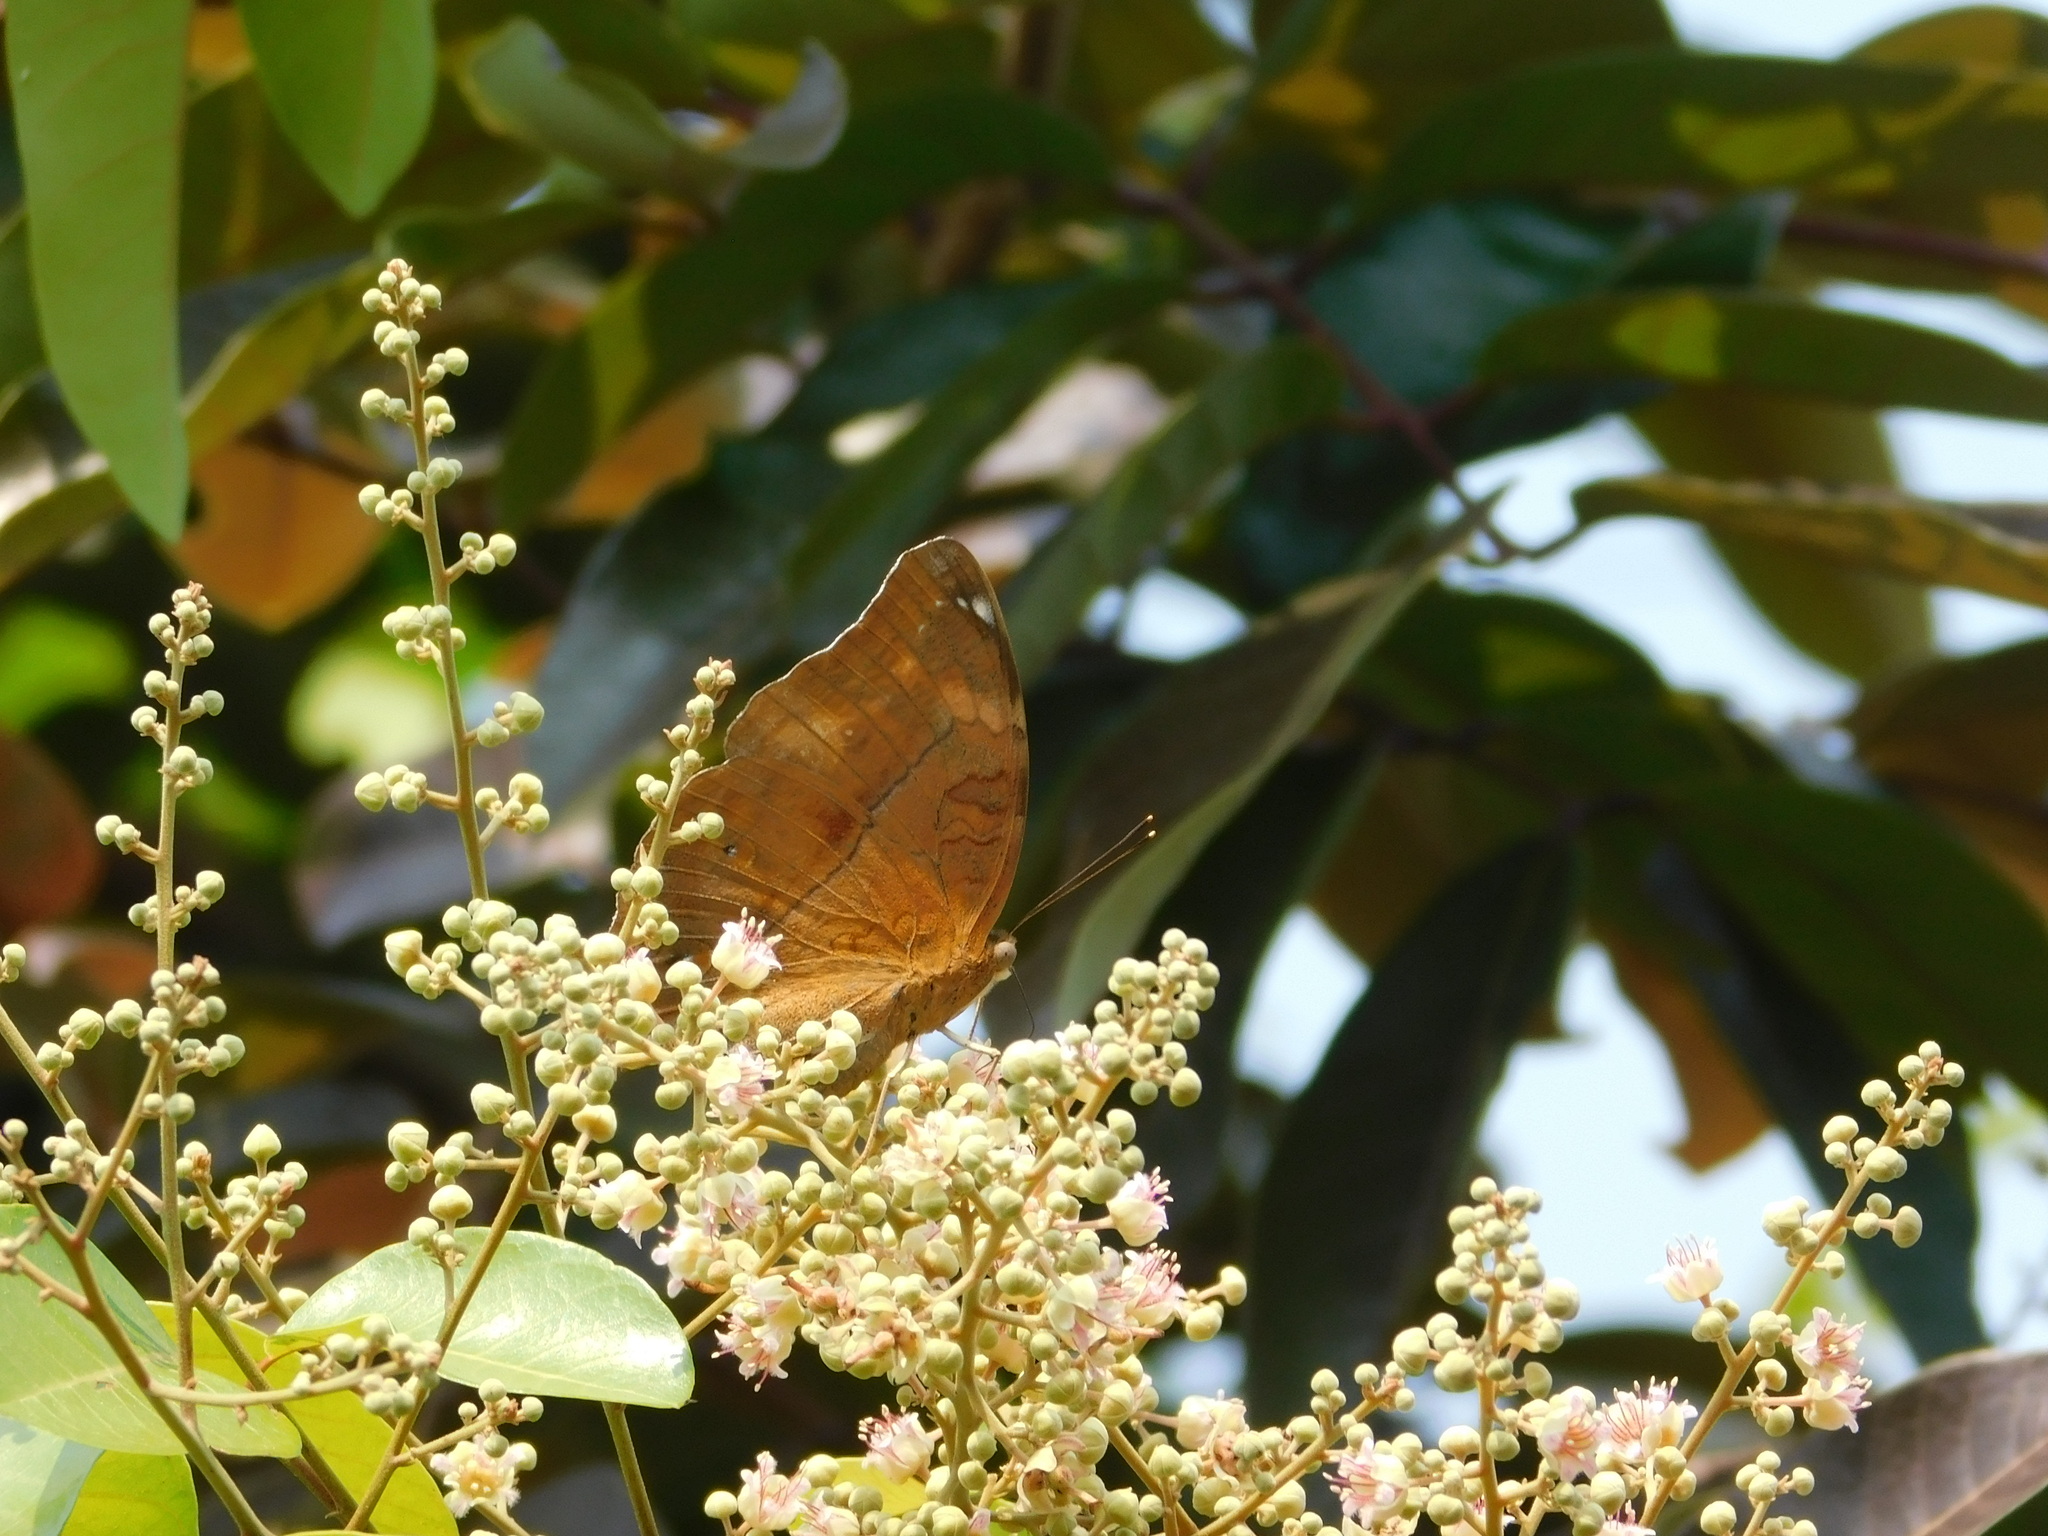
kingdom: Animalia
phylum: Arthropoda
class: Insecta
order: Lepidoptera
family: Nymphalidae
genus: Doleschallia
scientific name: Doleschallia bisaltide
